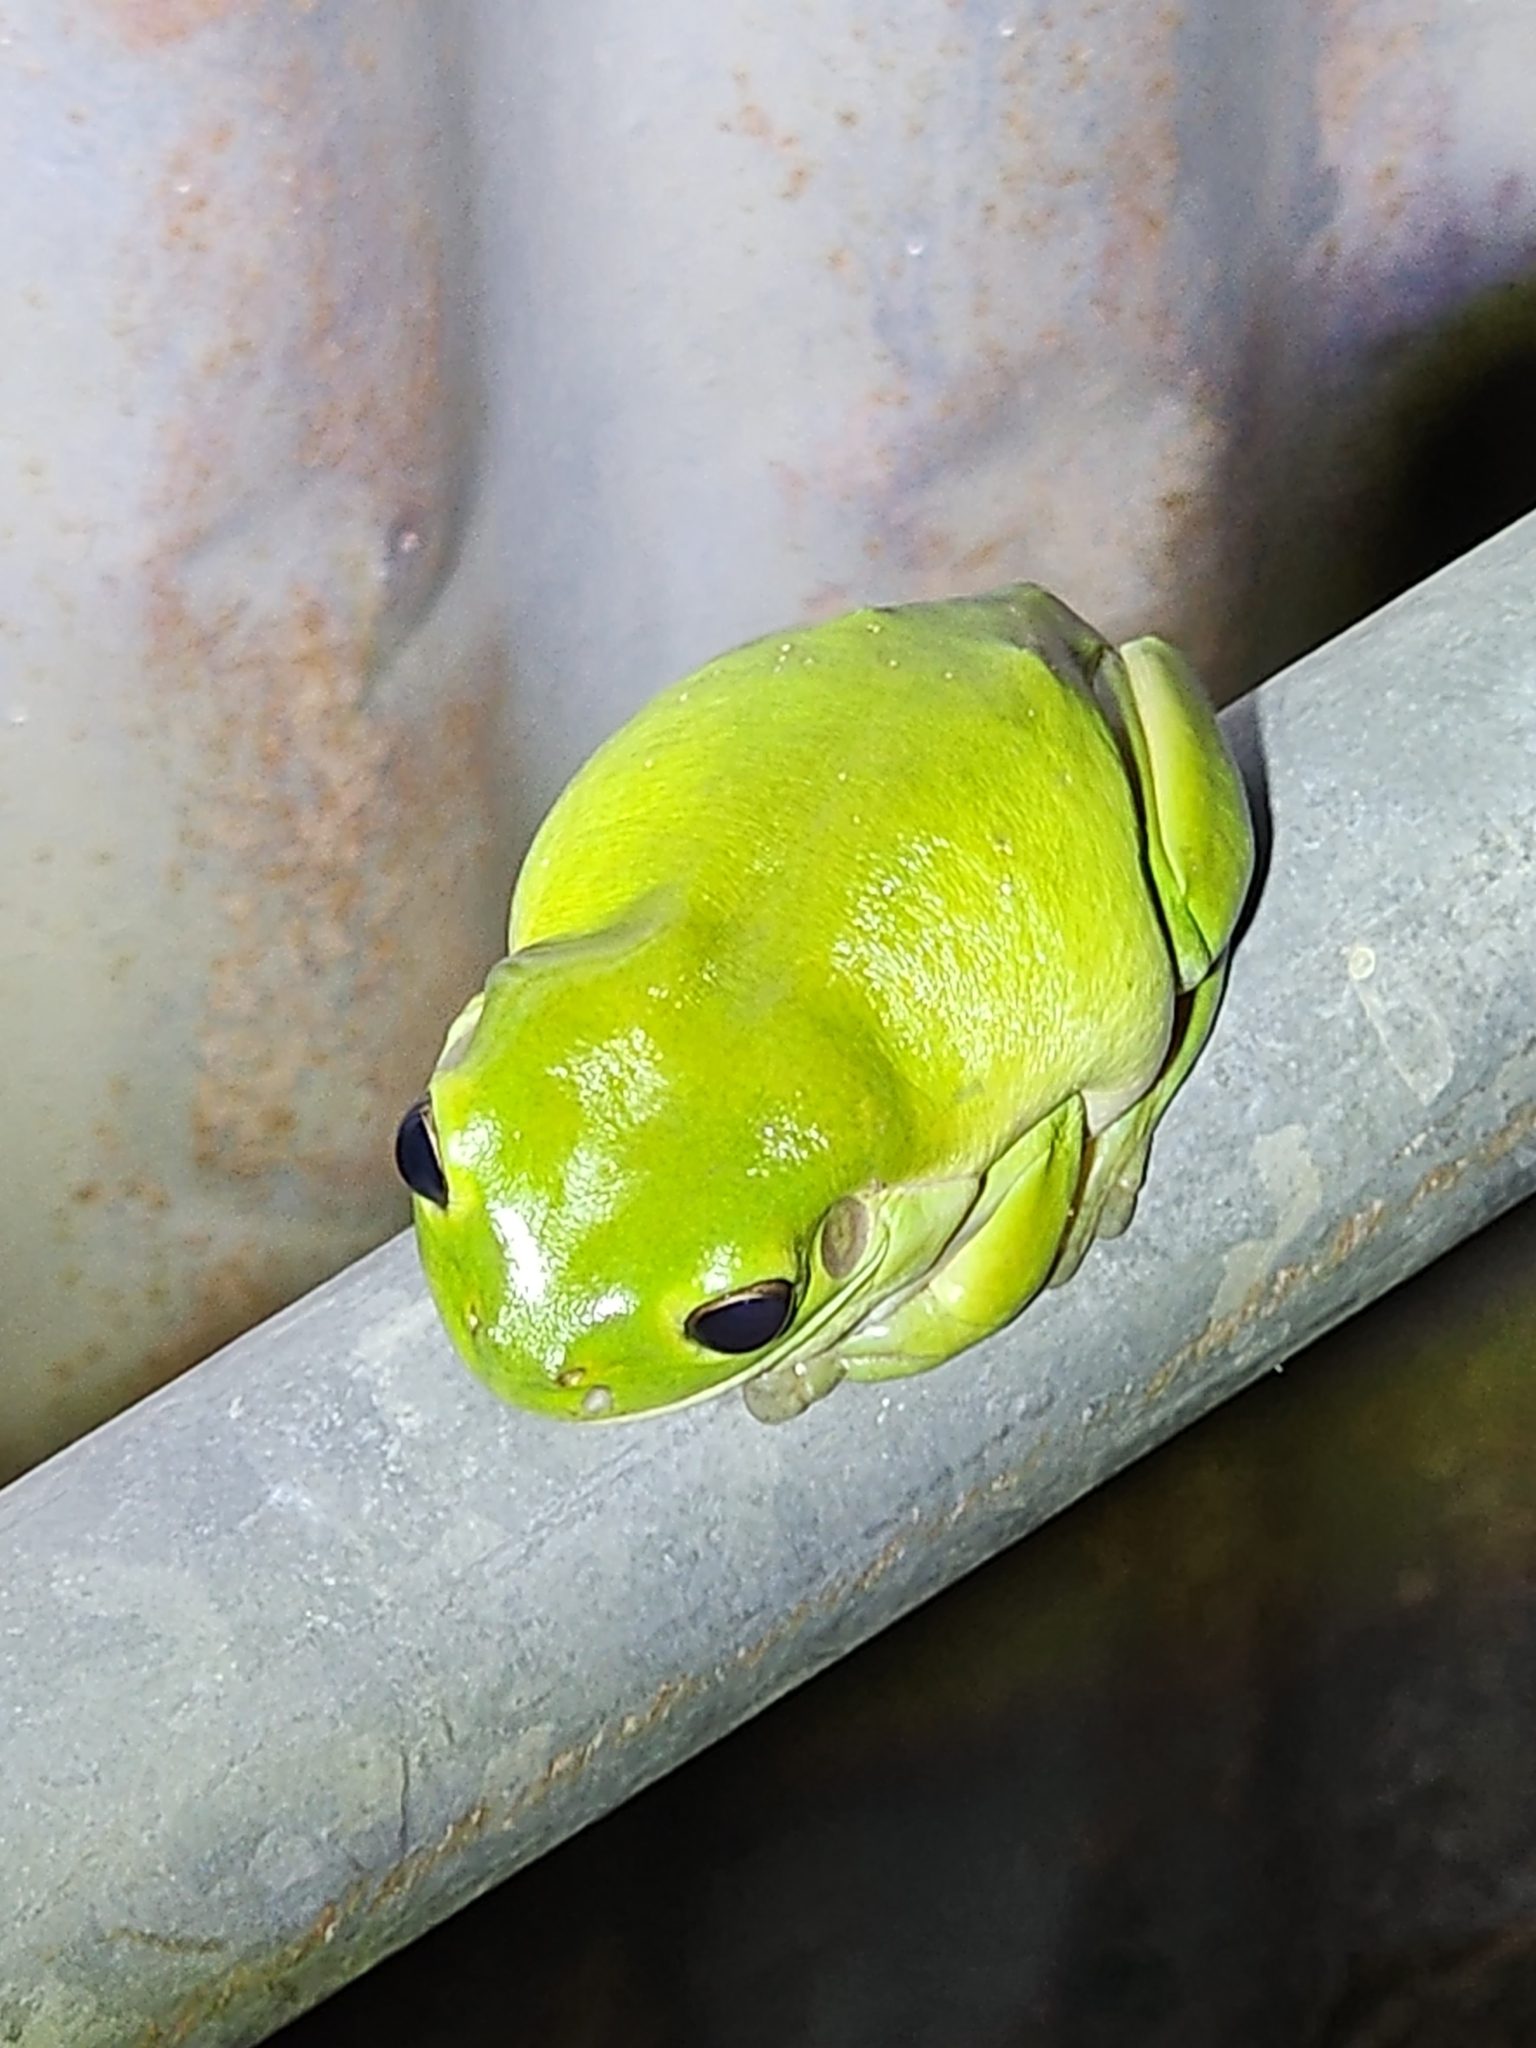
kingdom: Animalia
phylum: Chordata
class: Amphibia
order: Anura
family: Pelodryadidae
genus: Ranoidea
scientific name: Ranoidea caerulea
